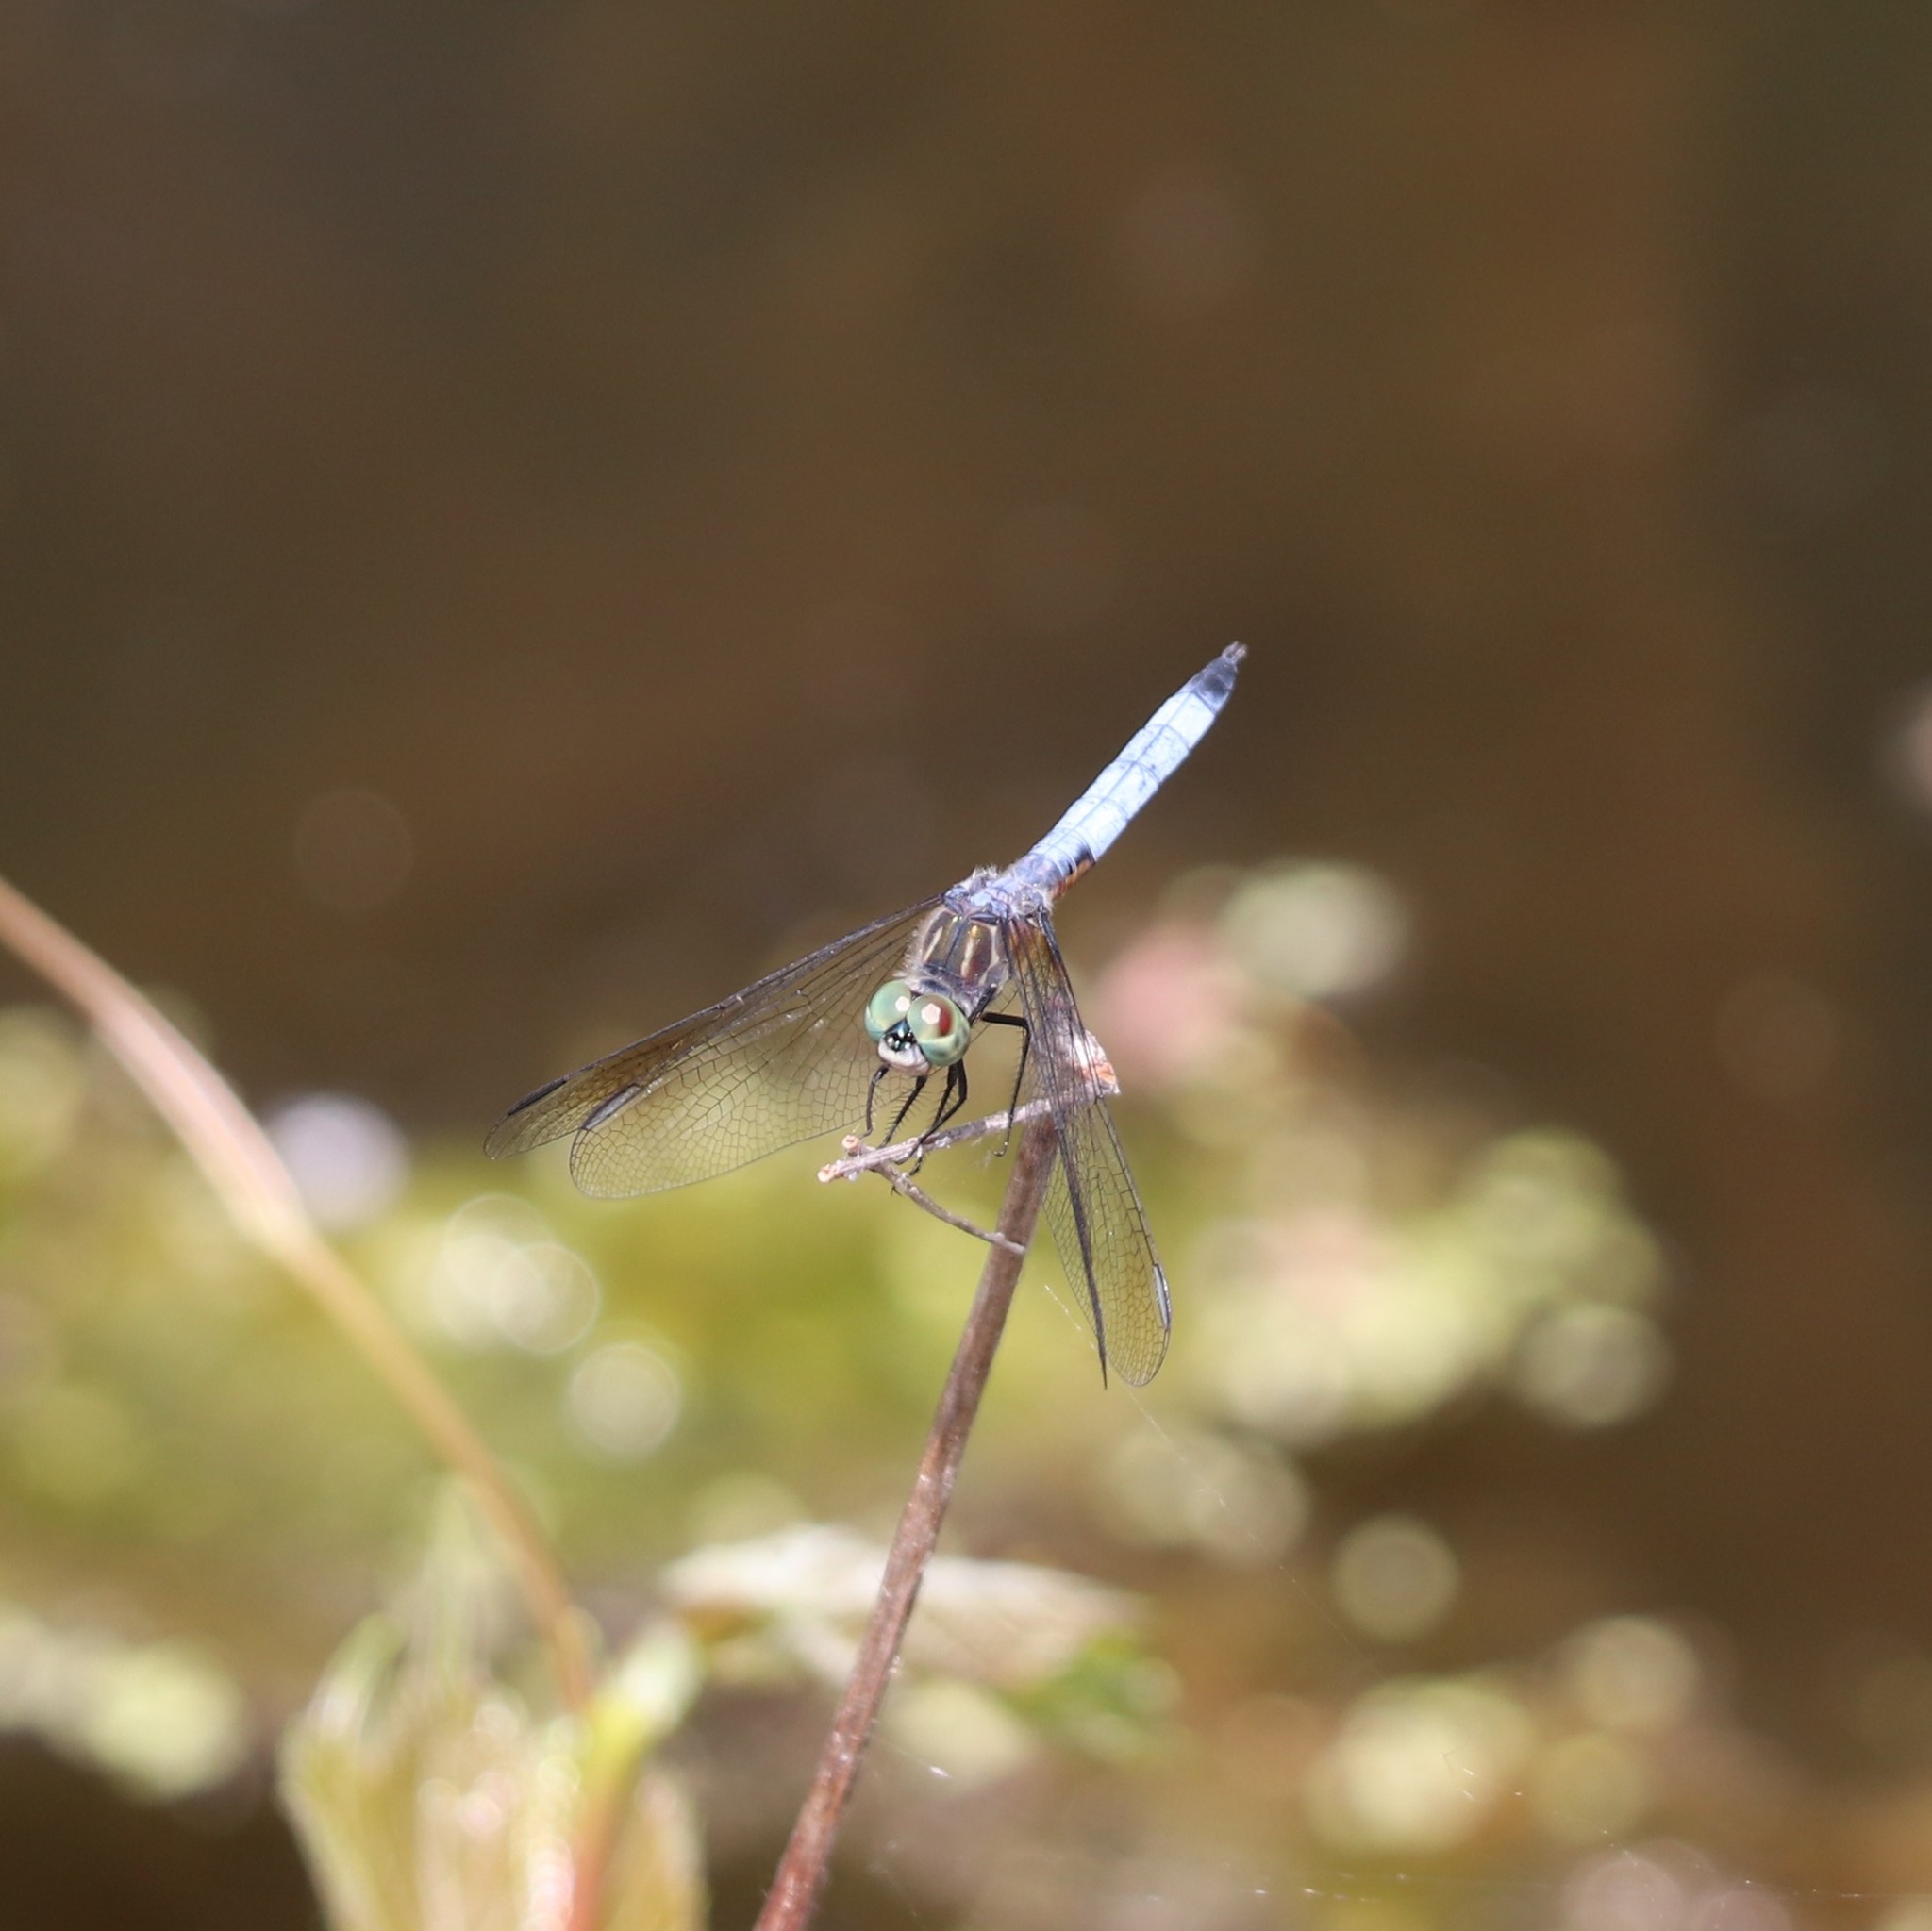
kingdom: Animalia
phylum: Arthropoda
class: Insecta
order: Odonata
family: Libellulidae
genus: Pachydiplax
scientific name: Pachydiplax longipennis
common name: Blue dasher
